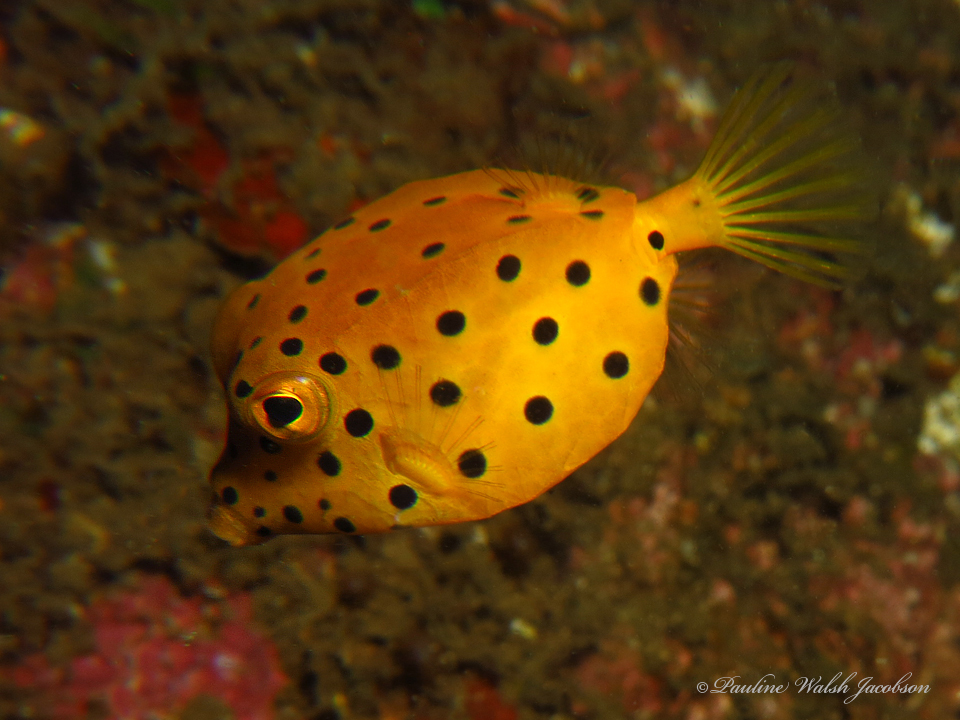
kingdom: Animalia
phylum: Chordata
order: Tetraodontiformes
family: Ostraciidae
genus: Ostracion
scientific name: Ostracion cubicus
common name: Cube trunkfish
